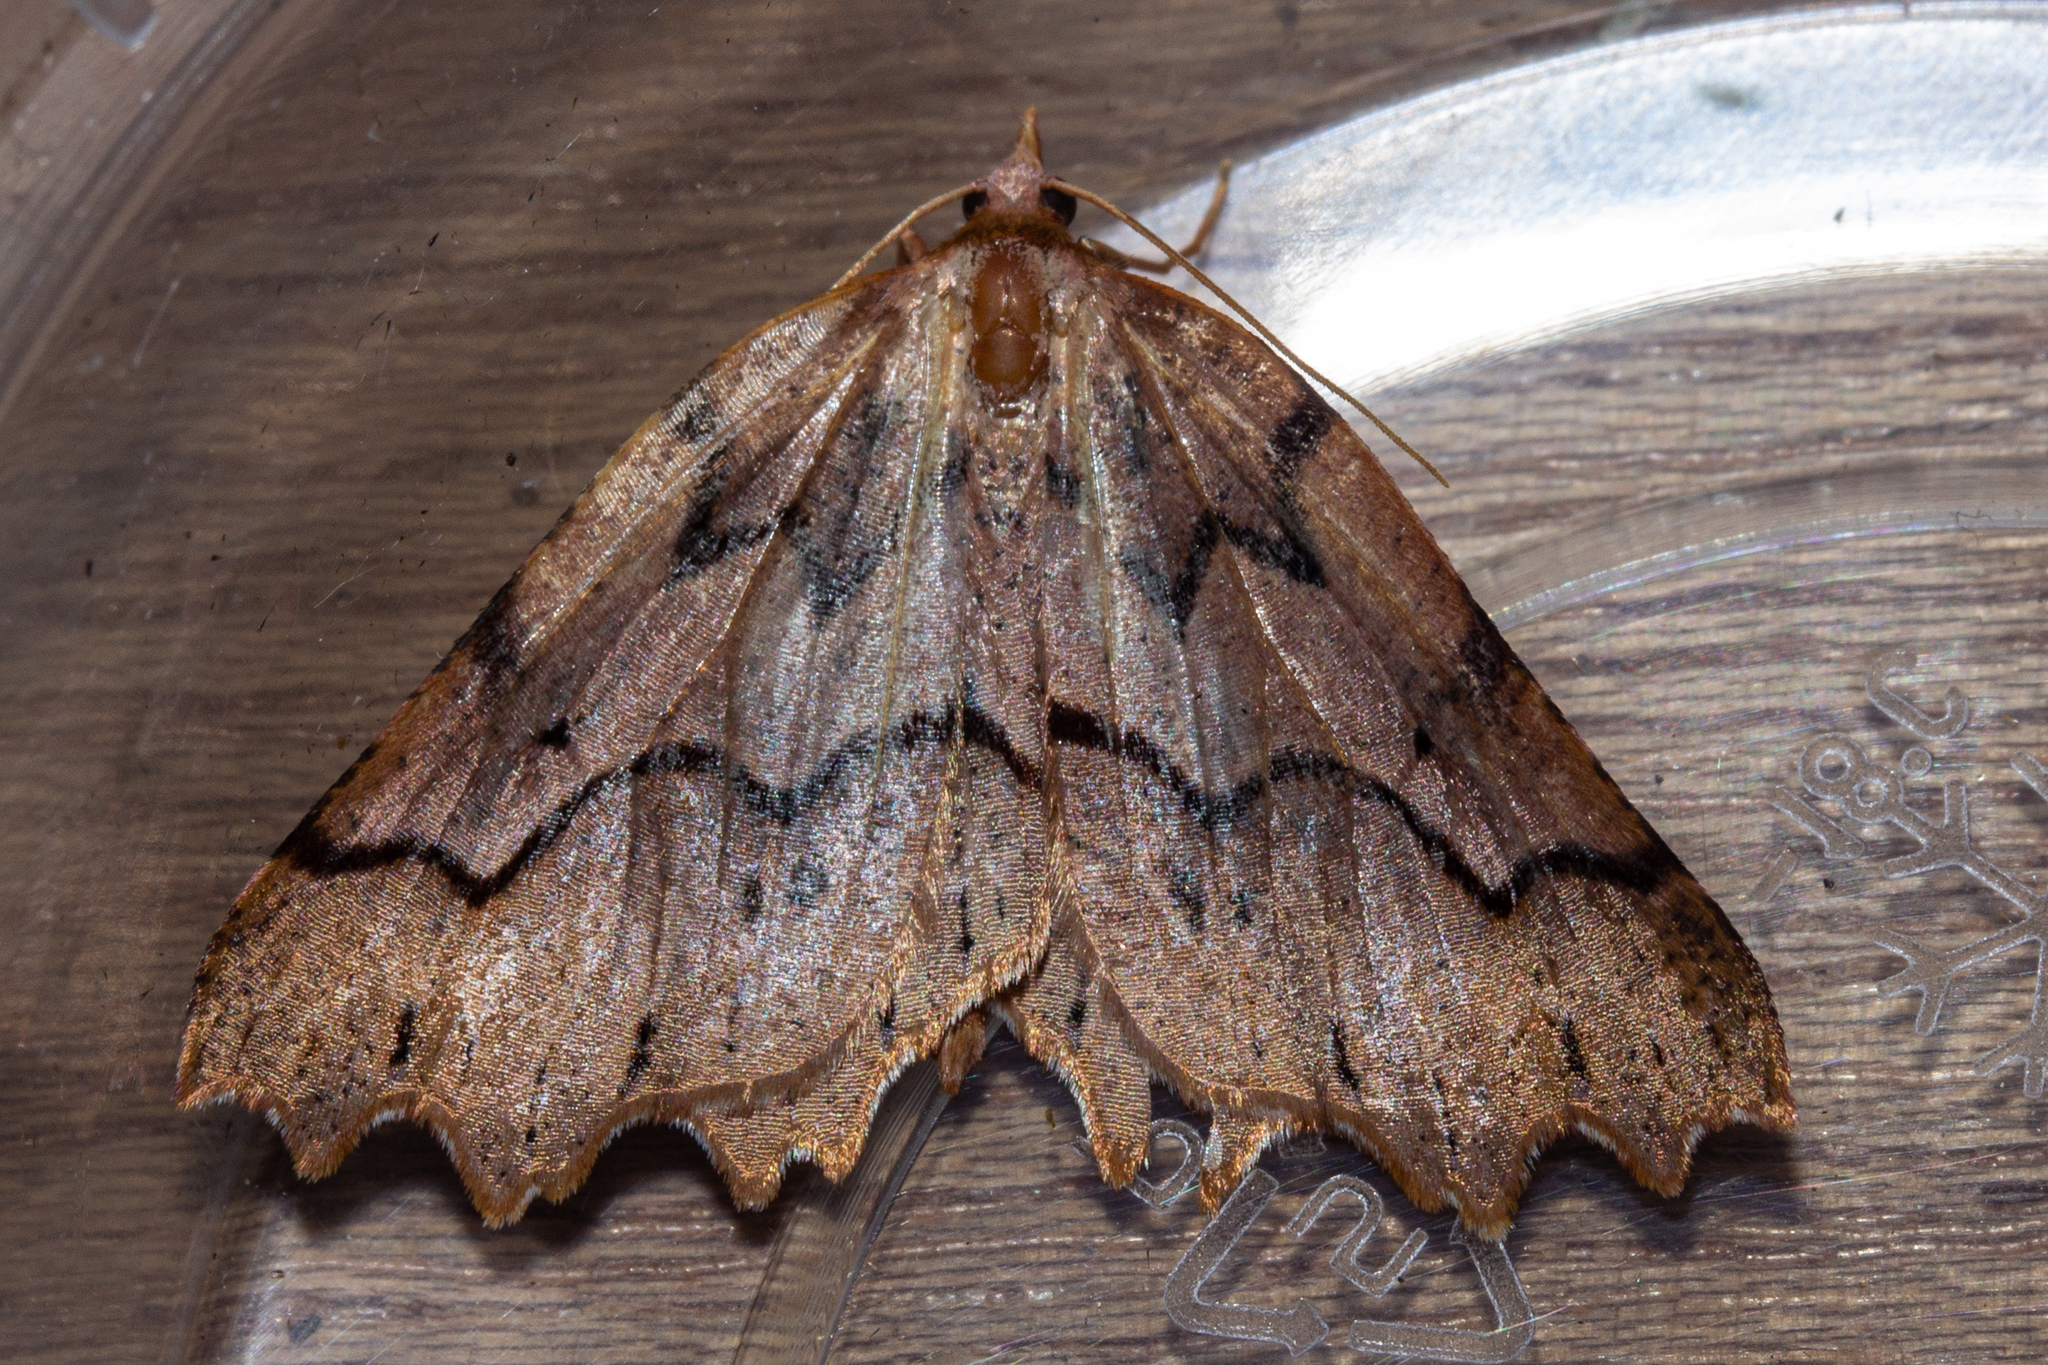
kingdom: Animalia
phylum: Arthropoda
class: Insecta
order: Lepidoptera
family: Geometridae
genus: Ischalis
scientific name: Ischalis fortinata
